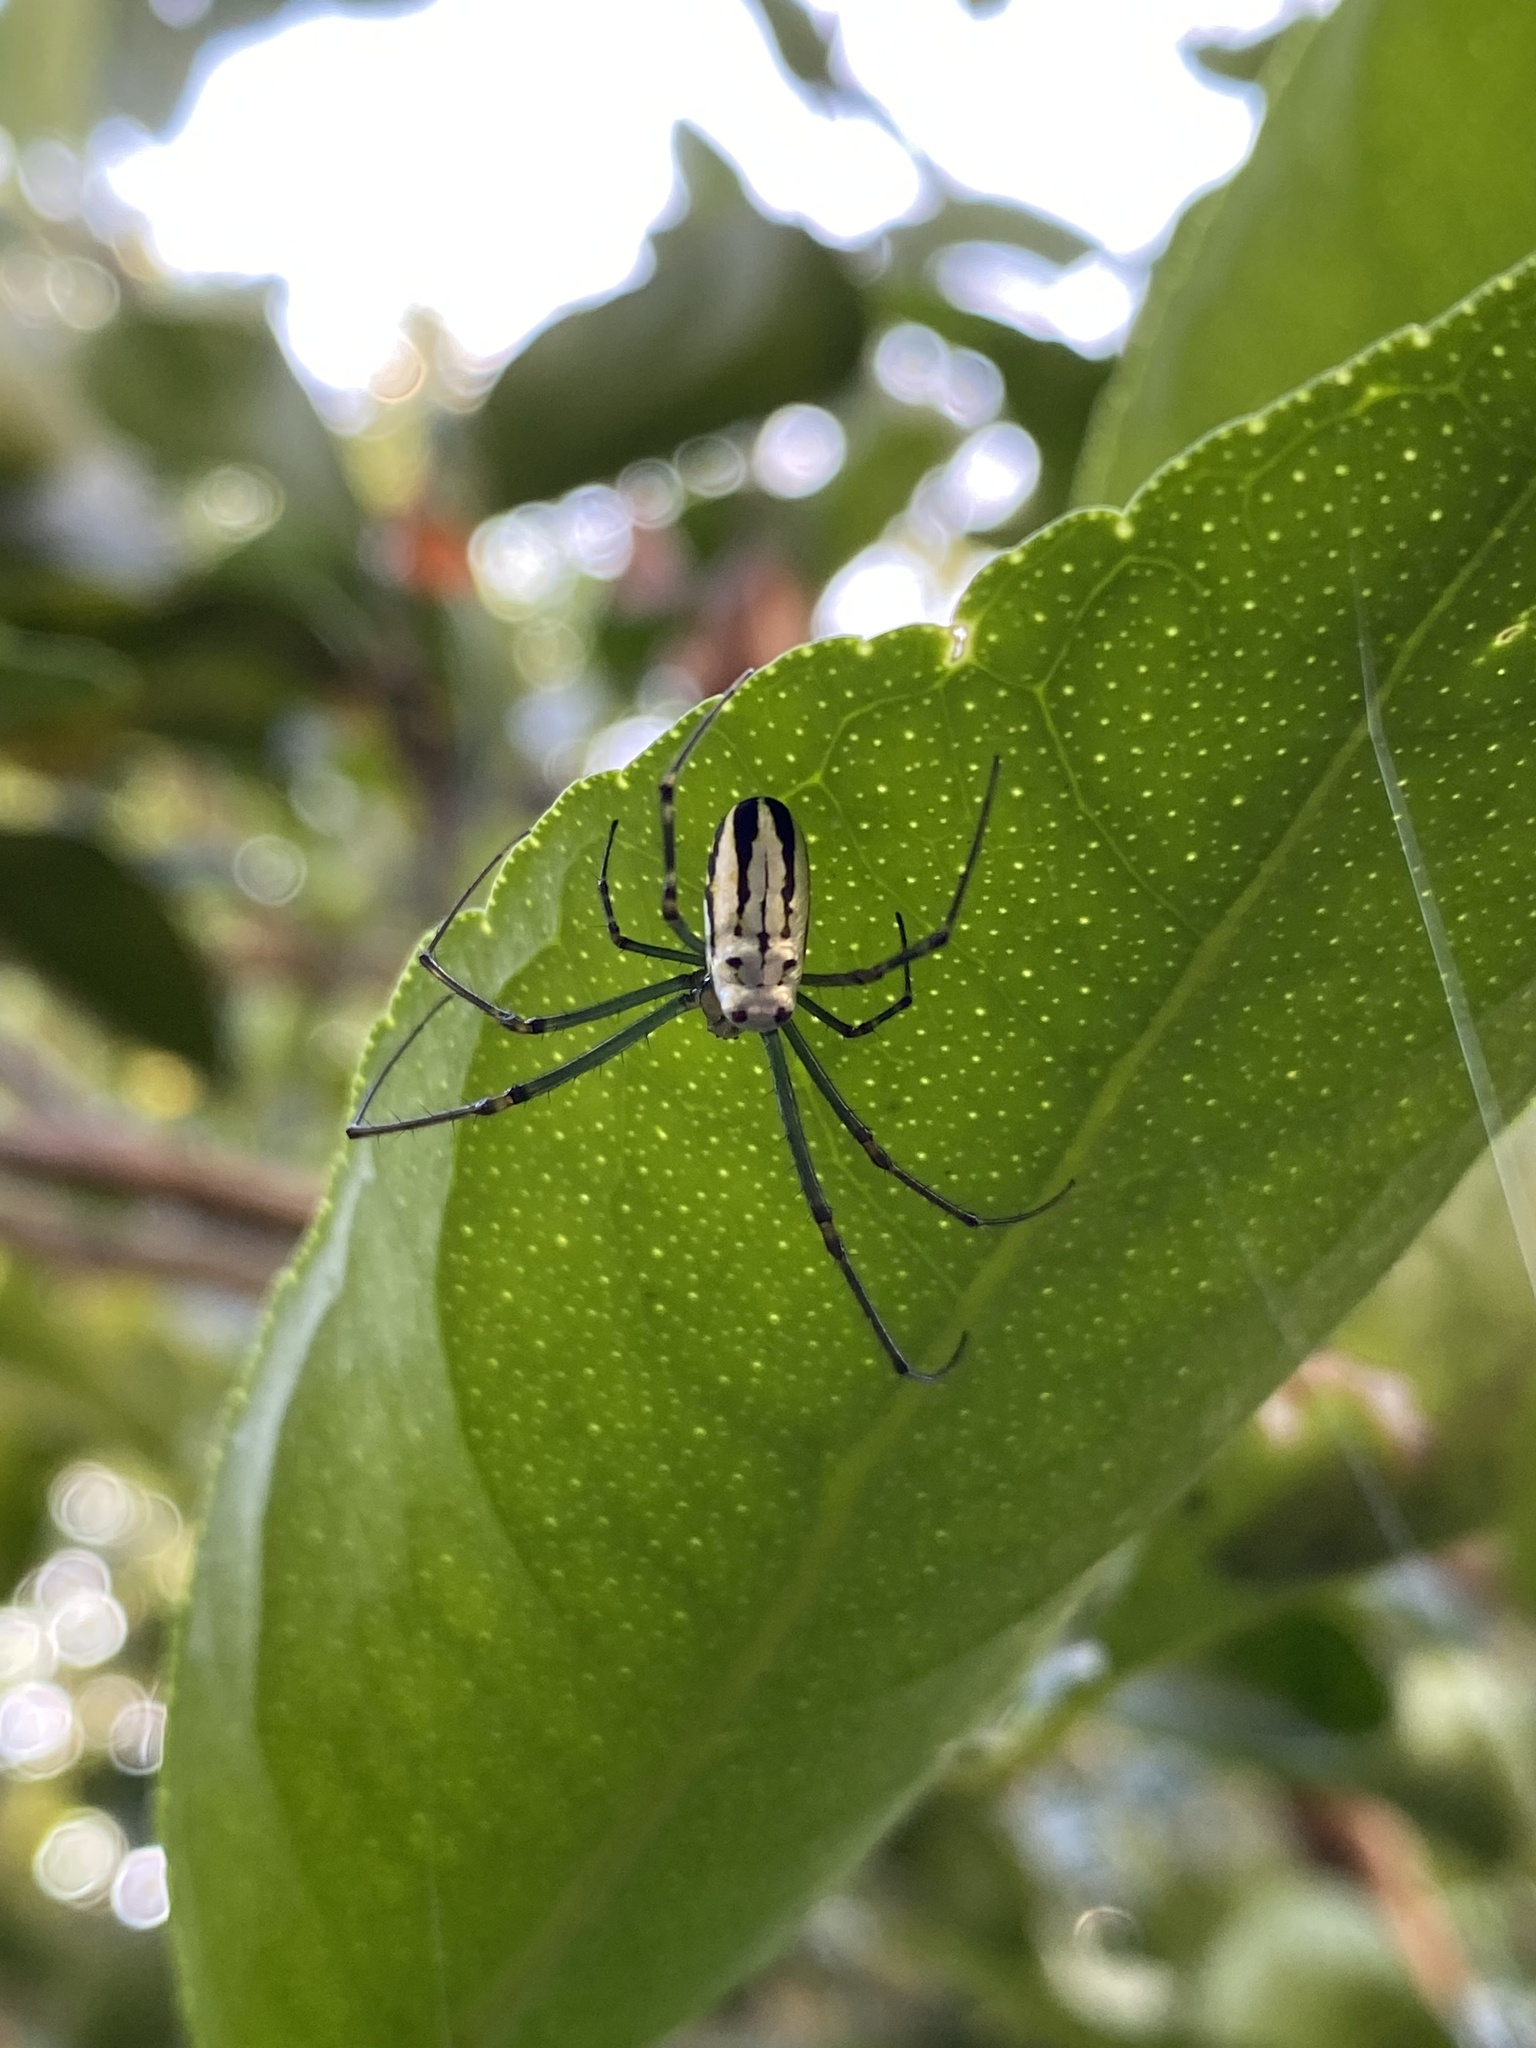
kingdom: Animalia
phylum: Arthropoda
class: Arachnida
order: Araneae
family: Tetragnathidae
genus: Leucauge
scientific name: Leucauge dromedaria
